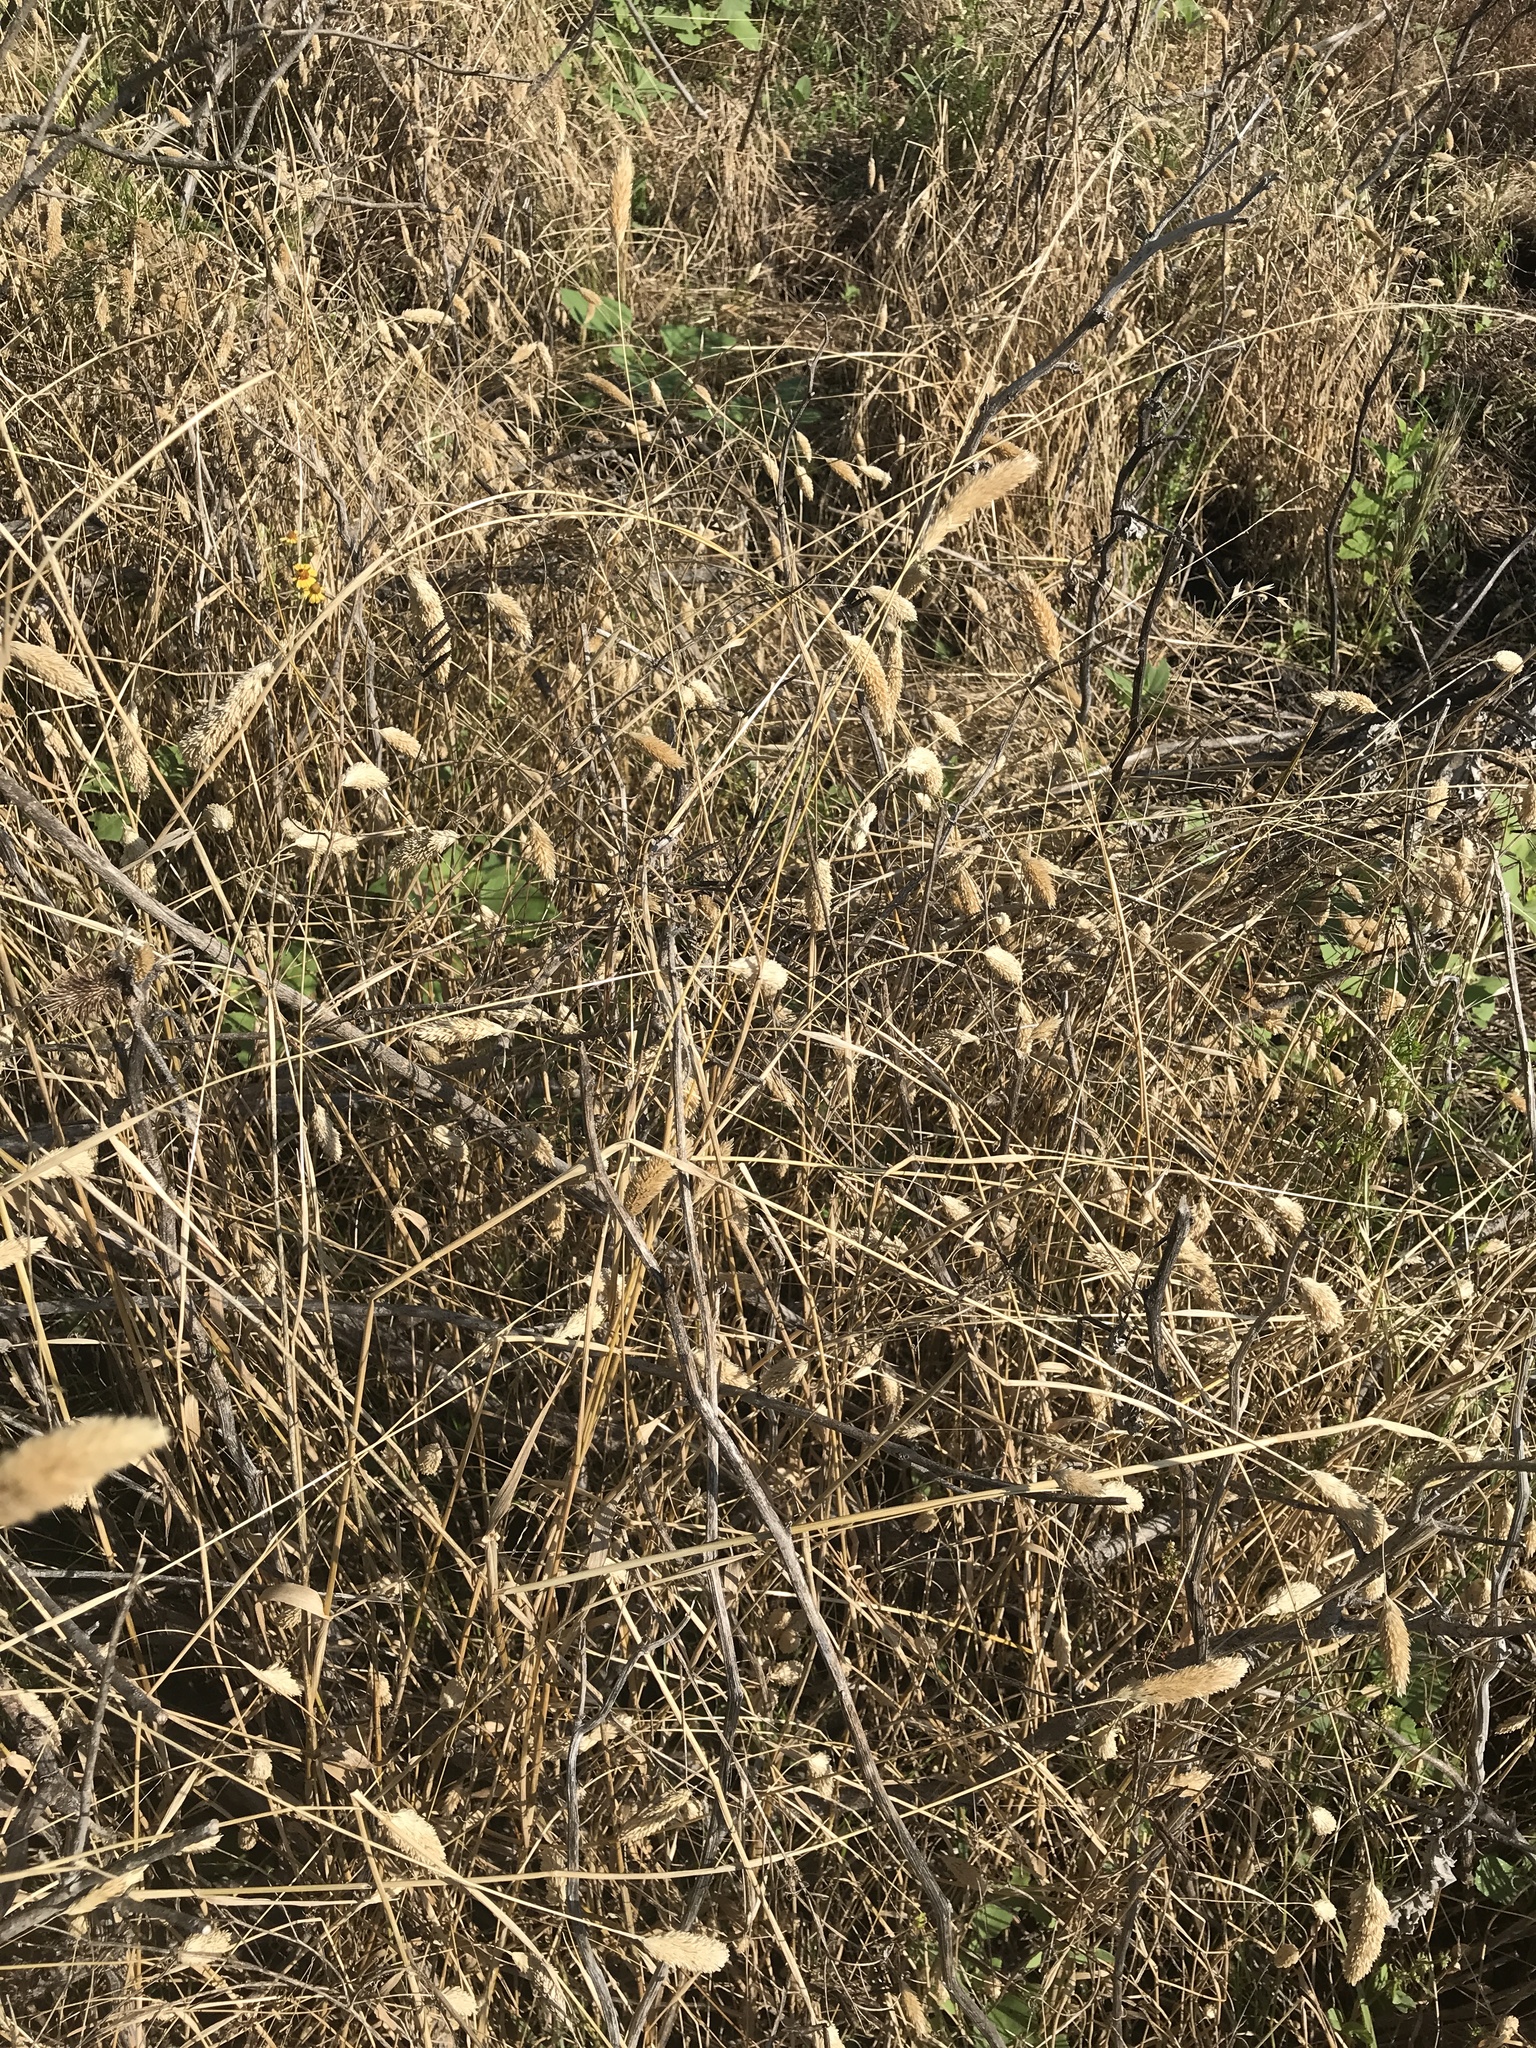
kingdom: Plantae
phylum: Tracheophyta
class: Liliopsida
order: Poales
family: Poaceae
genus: Phalaris
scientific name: Phalaris caroliniana
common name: May grass
